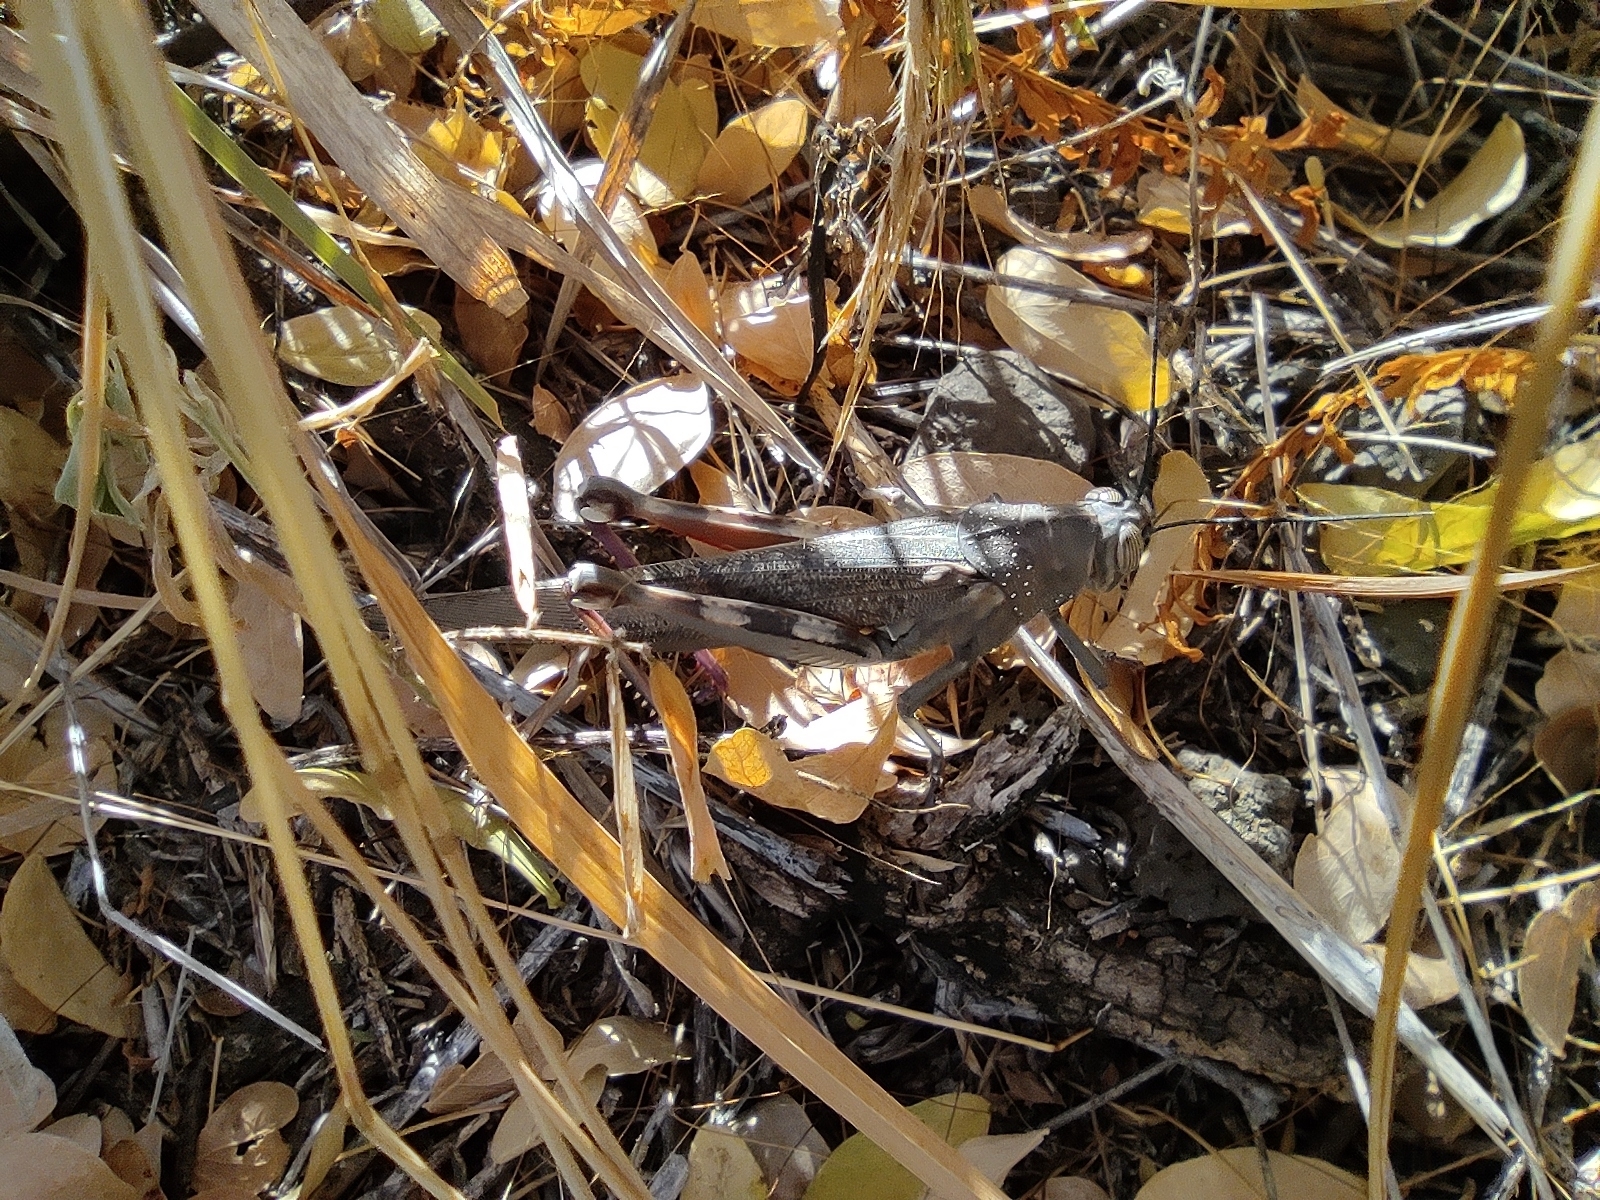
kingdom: Animalia
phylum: Arthropoda
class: Insecta
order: Orthoptera
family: Acrididae
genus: Anacridium
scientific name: Anacridium melanorhodon
